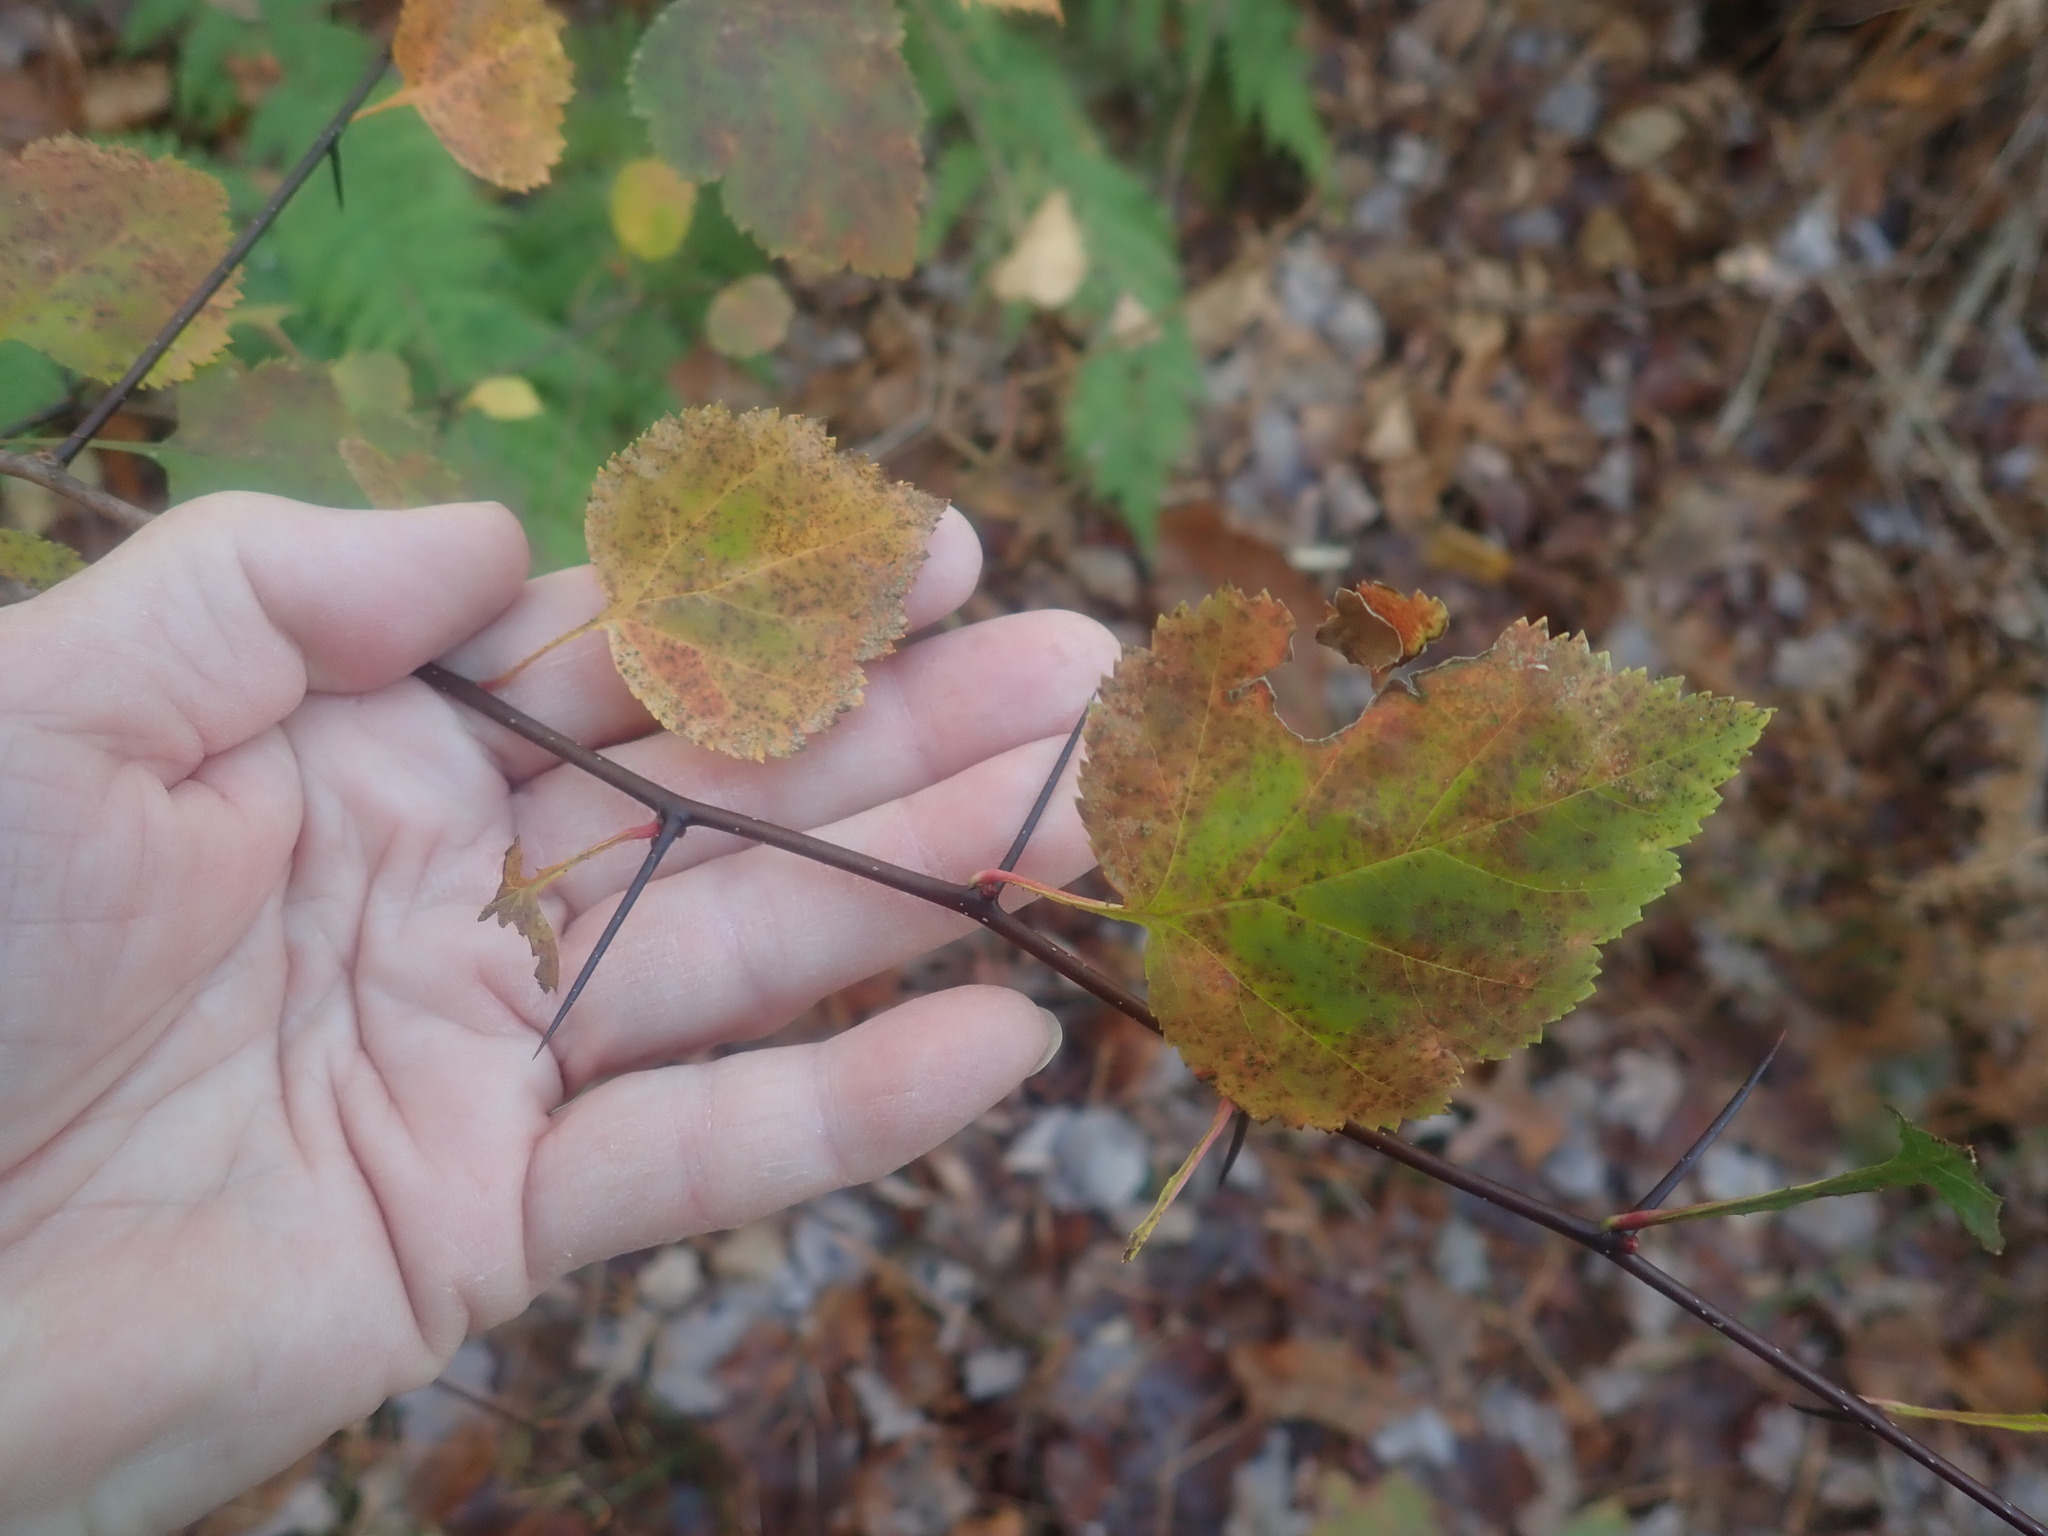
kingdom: Plantae
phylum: Tracheophyta
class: Magnoliopsida
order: Rosales
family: Rosaceae
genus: Crataegus
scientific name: Crataegus
